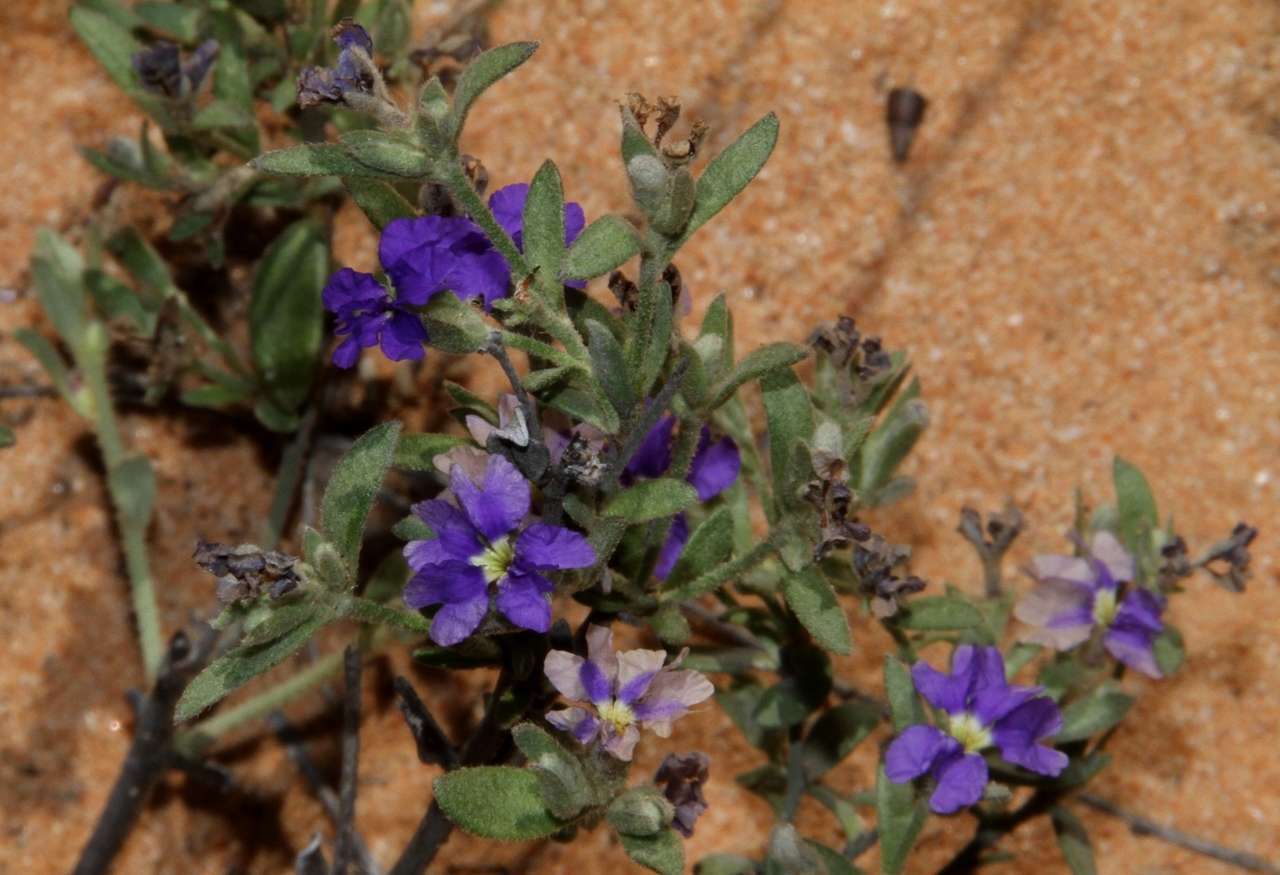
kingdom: Plantae
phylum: Tracheophyta
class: Magnoliopsida
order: Asterales
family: Goodeniaceae
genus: Dampiera
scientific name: Dampiera marifolia
